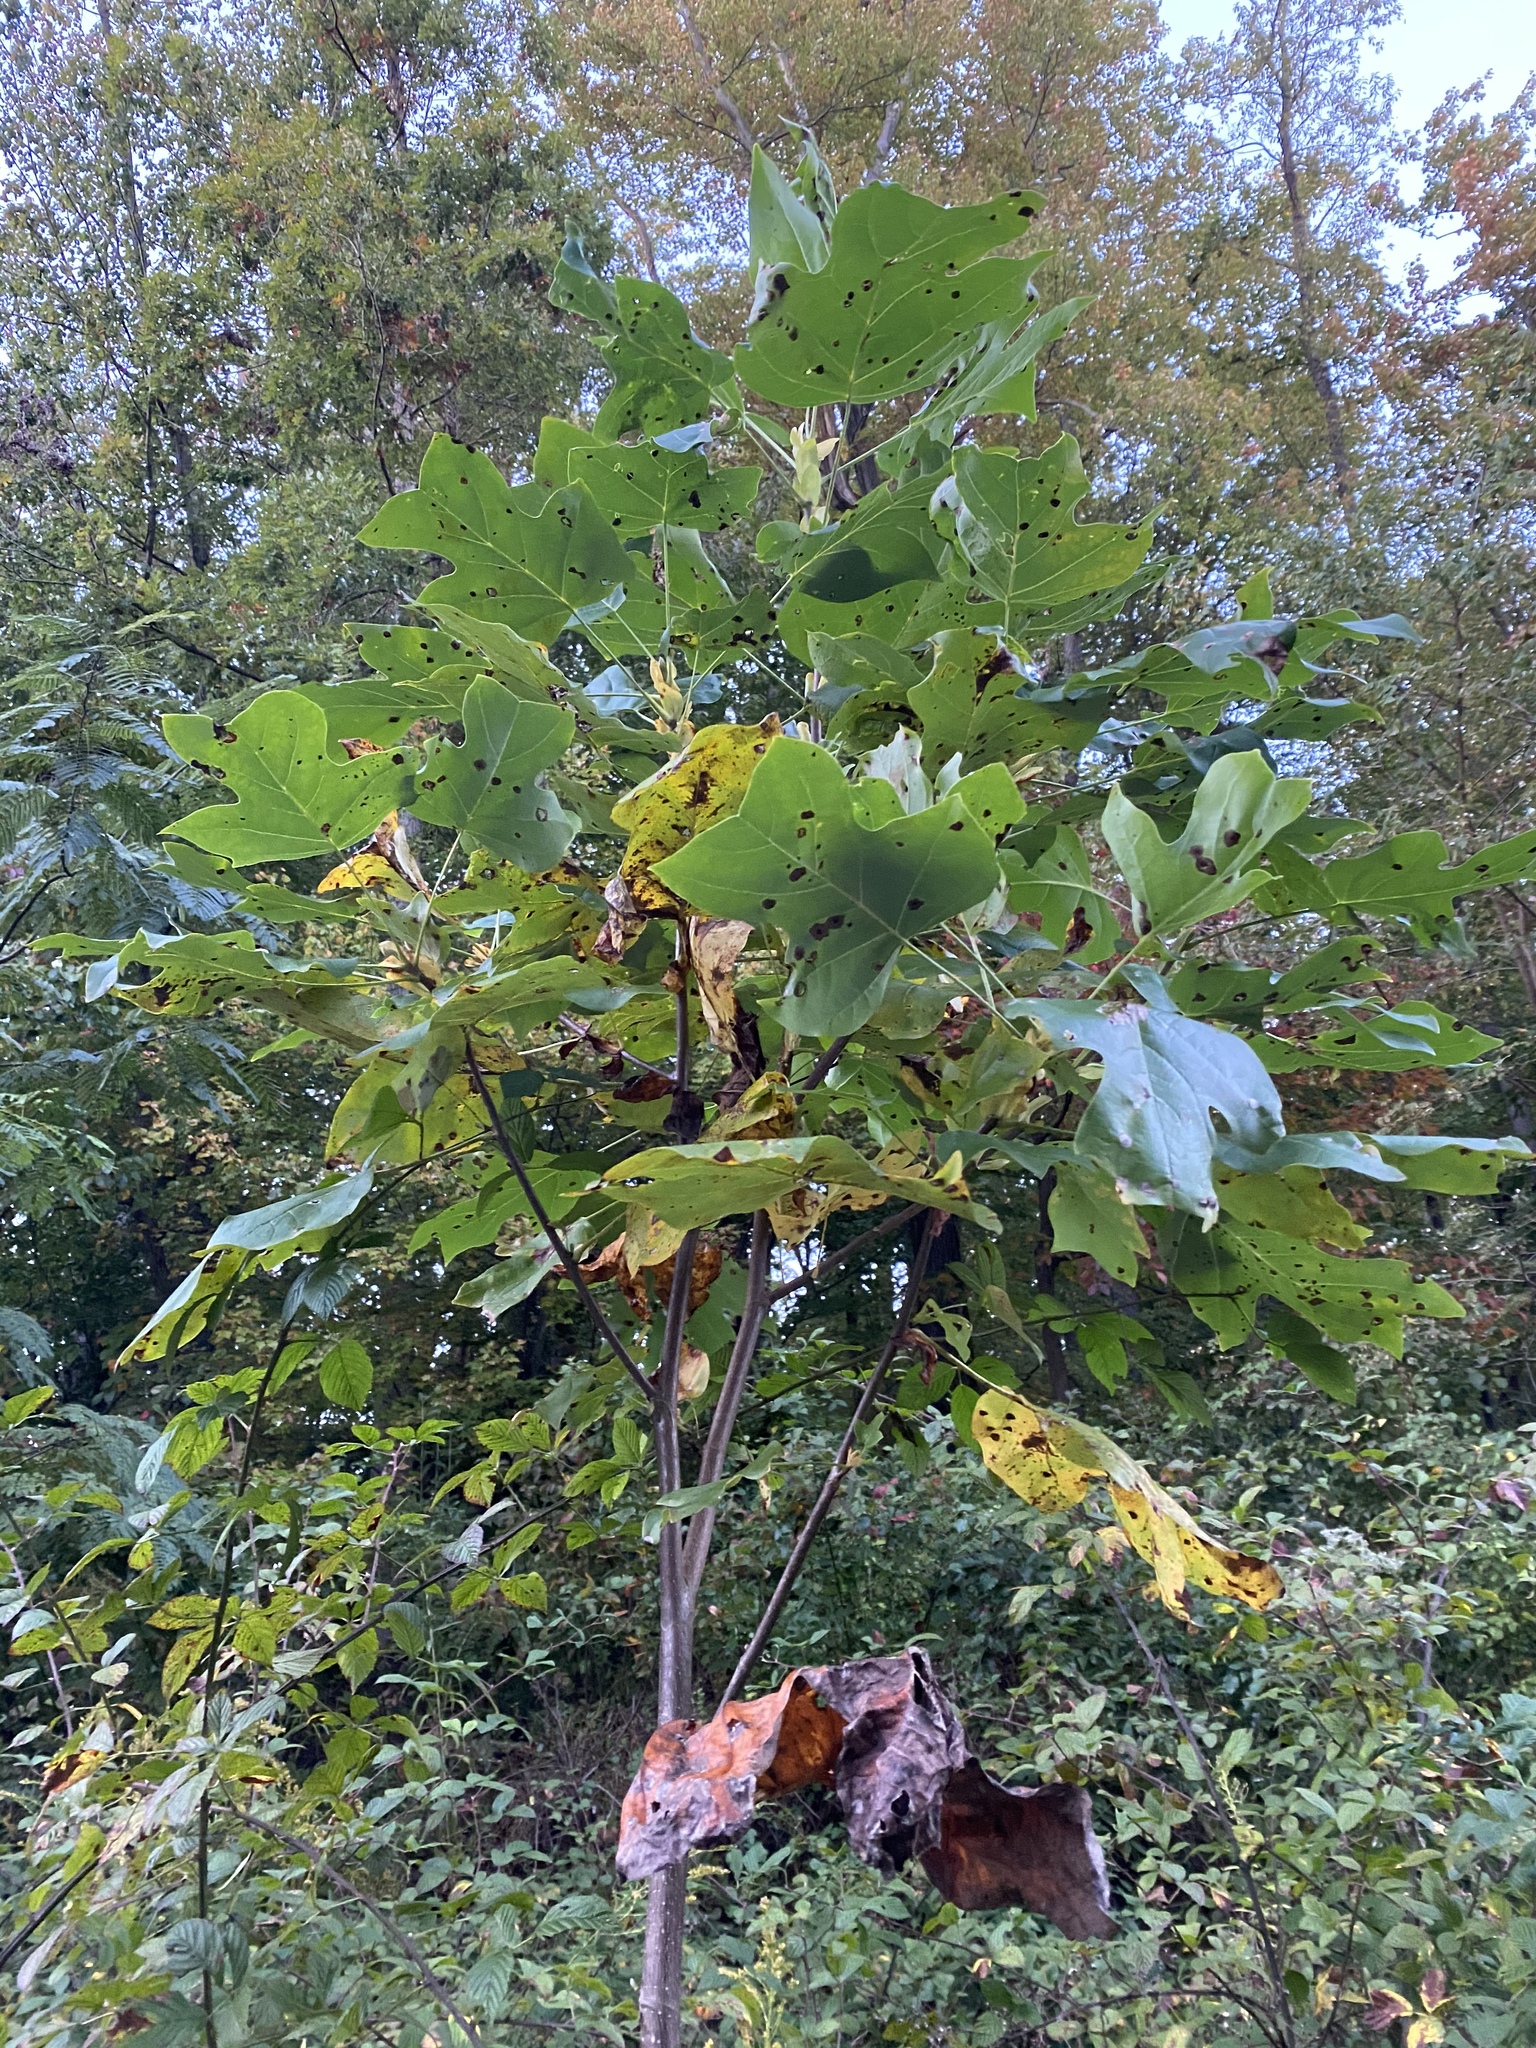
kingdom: Animalia
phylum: Arthropoda
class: Insecta
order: Diptera
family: Cecidomyiidae
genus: Resseliella
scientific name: Resseliella liriodendri
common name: Tulip tree leaf spot gall midge
